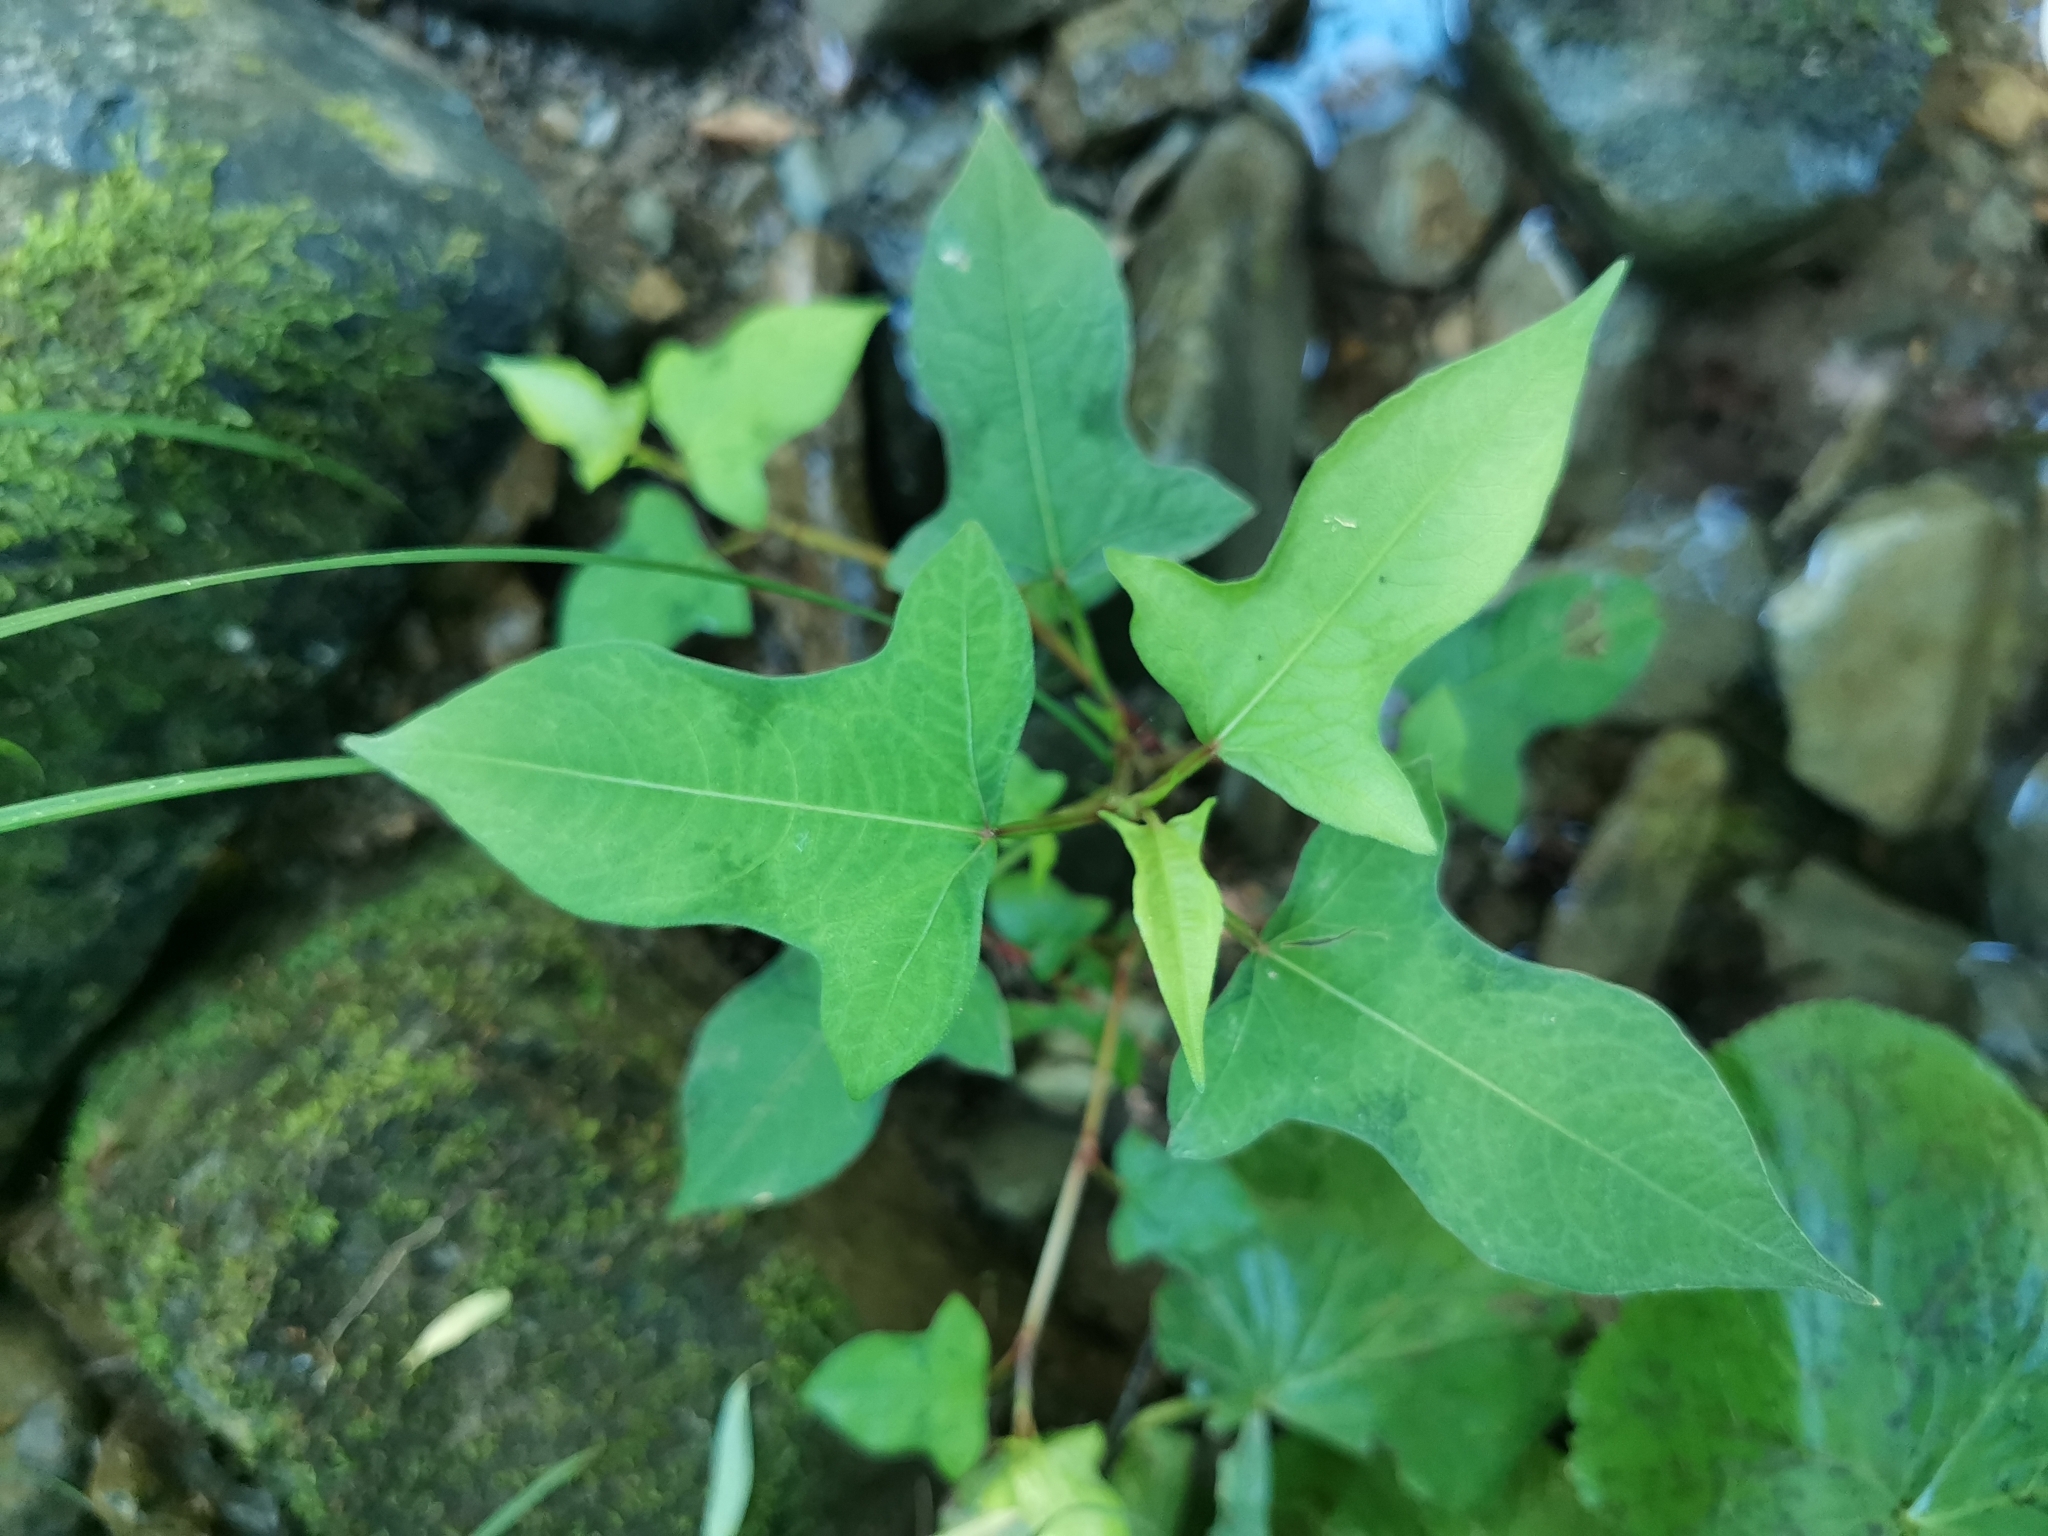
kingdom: Plantae
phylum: Tracheophyta
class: Magnoliopsida
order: Caryophyllales
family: Polygonaceae
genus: Persicaria
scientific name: Persicaria thunbergii
